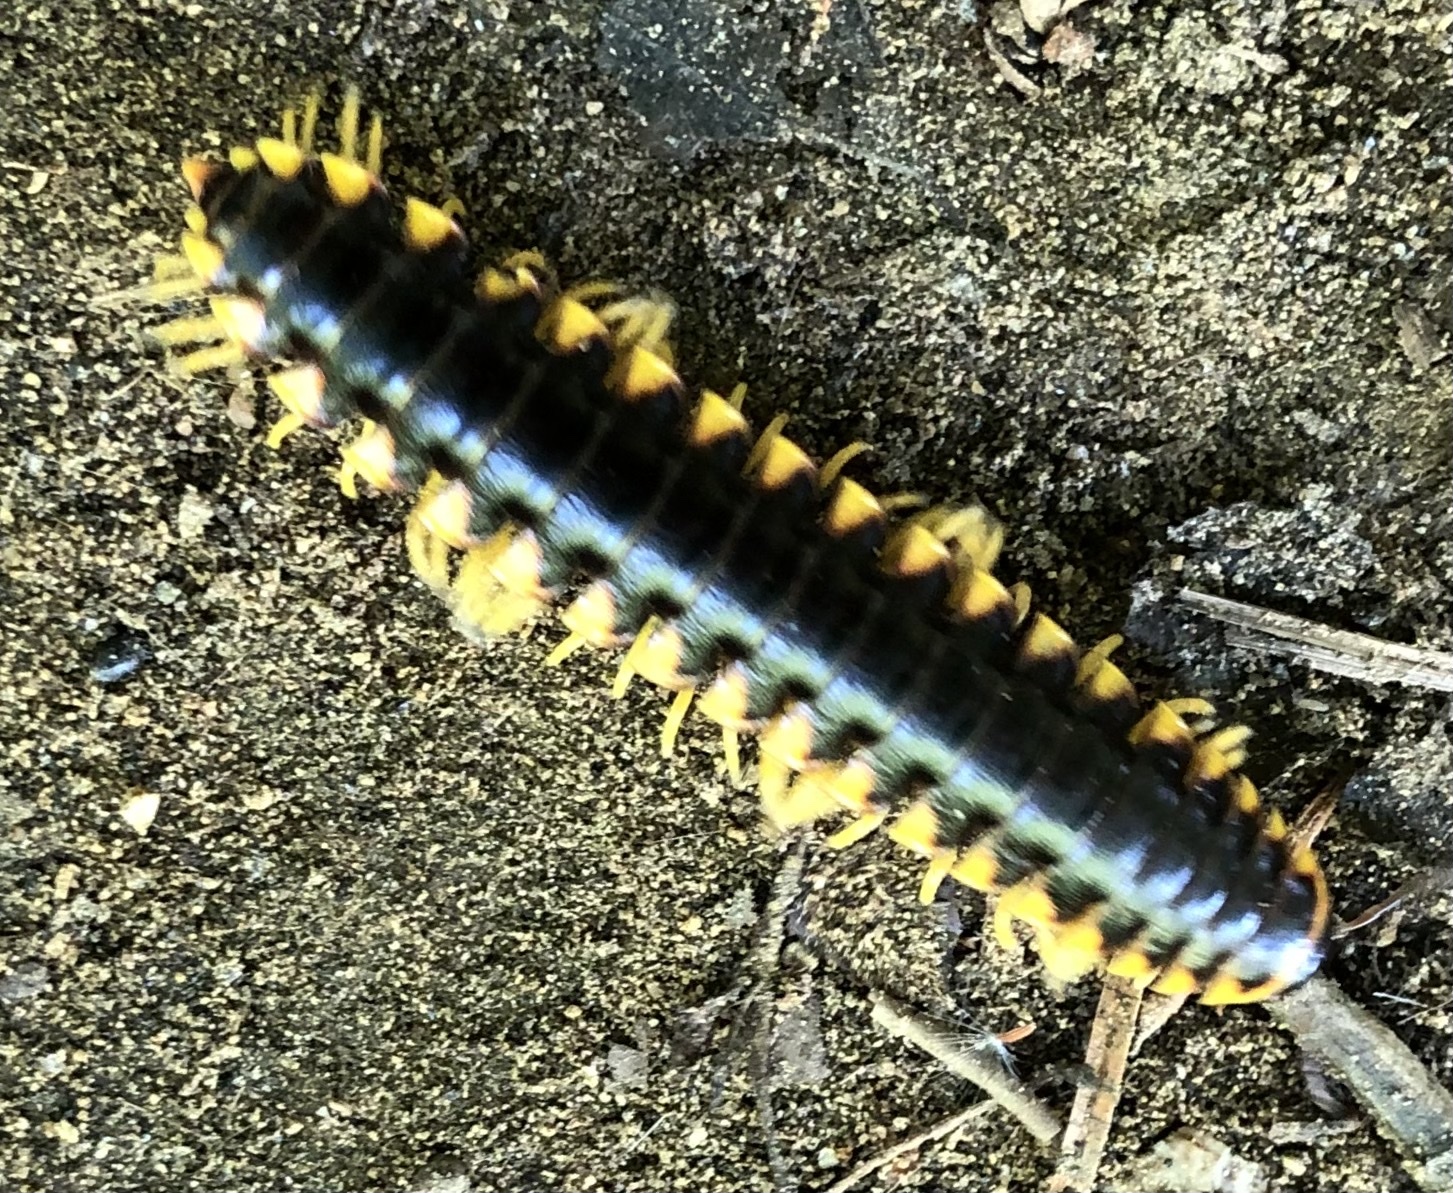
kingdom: Animalia
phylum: Arthropoda
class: Diplopoda
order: Polydesmida
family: Xystodesmidae
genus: Apheloria
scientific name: Apheloria tigana
